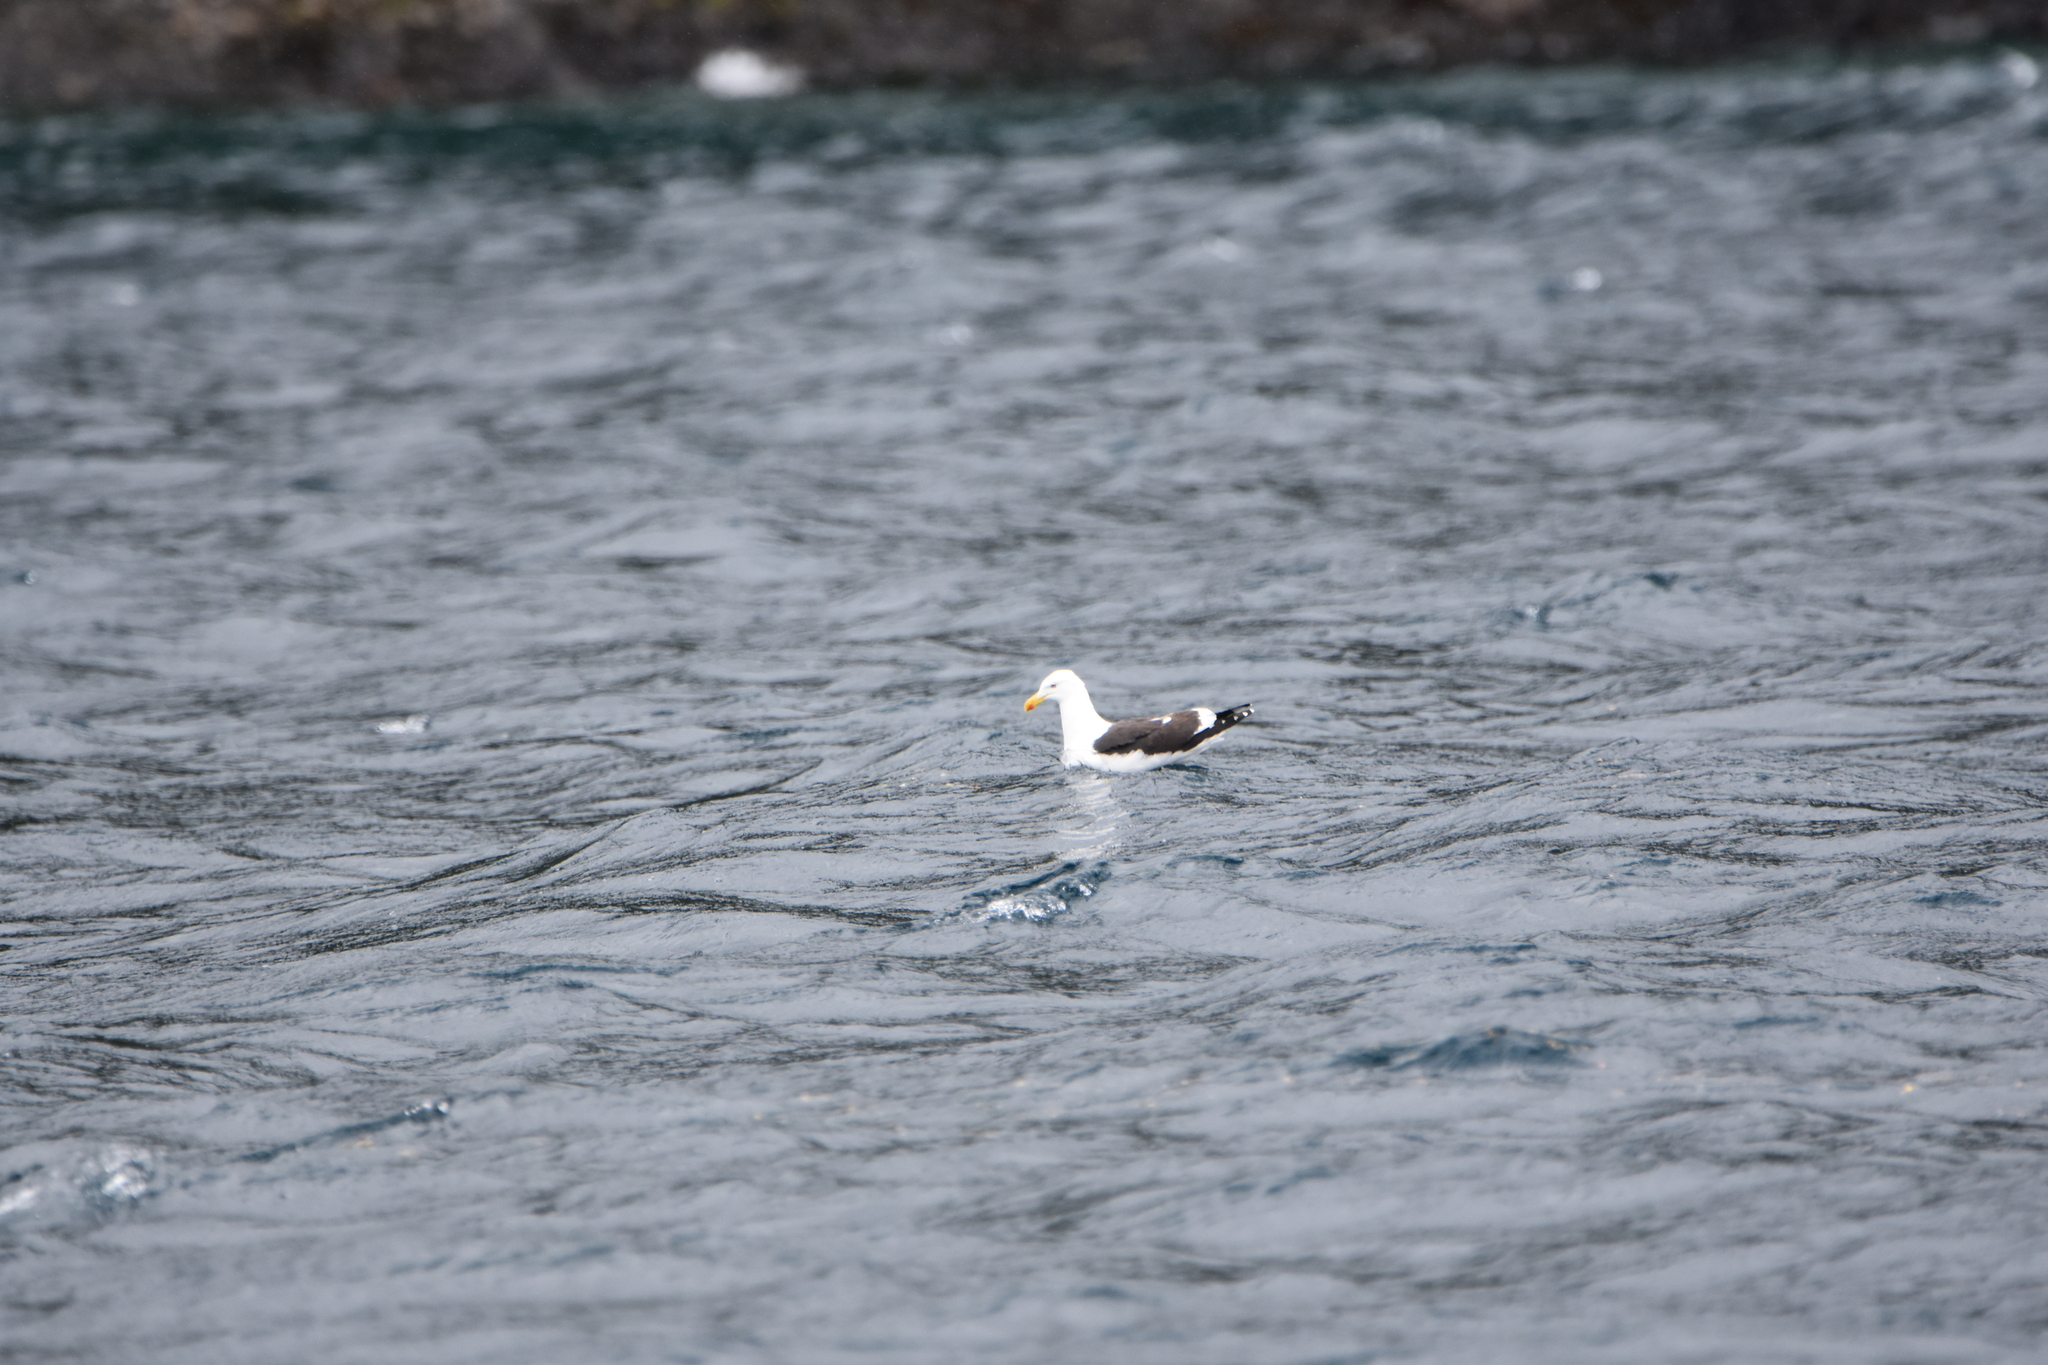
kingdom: Animalia
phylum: Chordata
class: Aves
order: Charadriiformes
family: Laridae
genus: Larus
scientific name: Larus dominicanus
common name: Kelp gull
